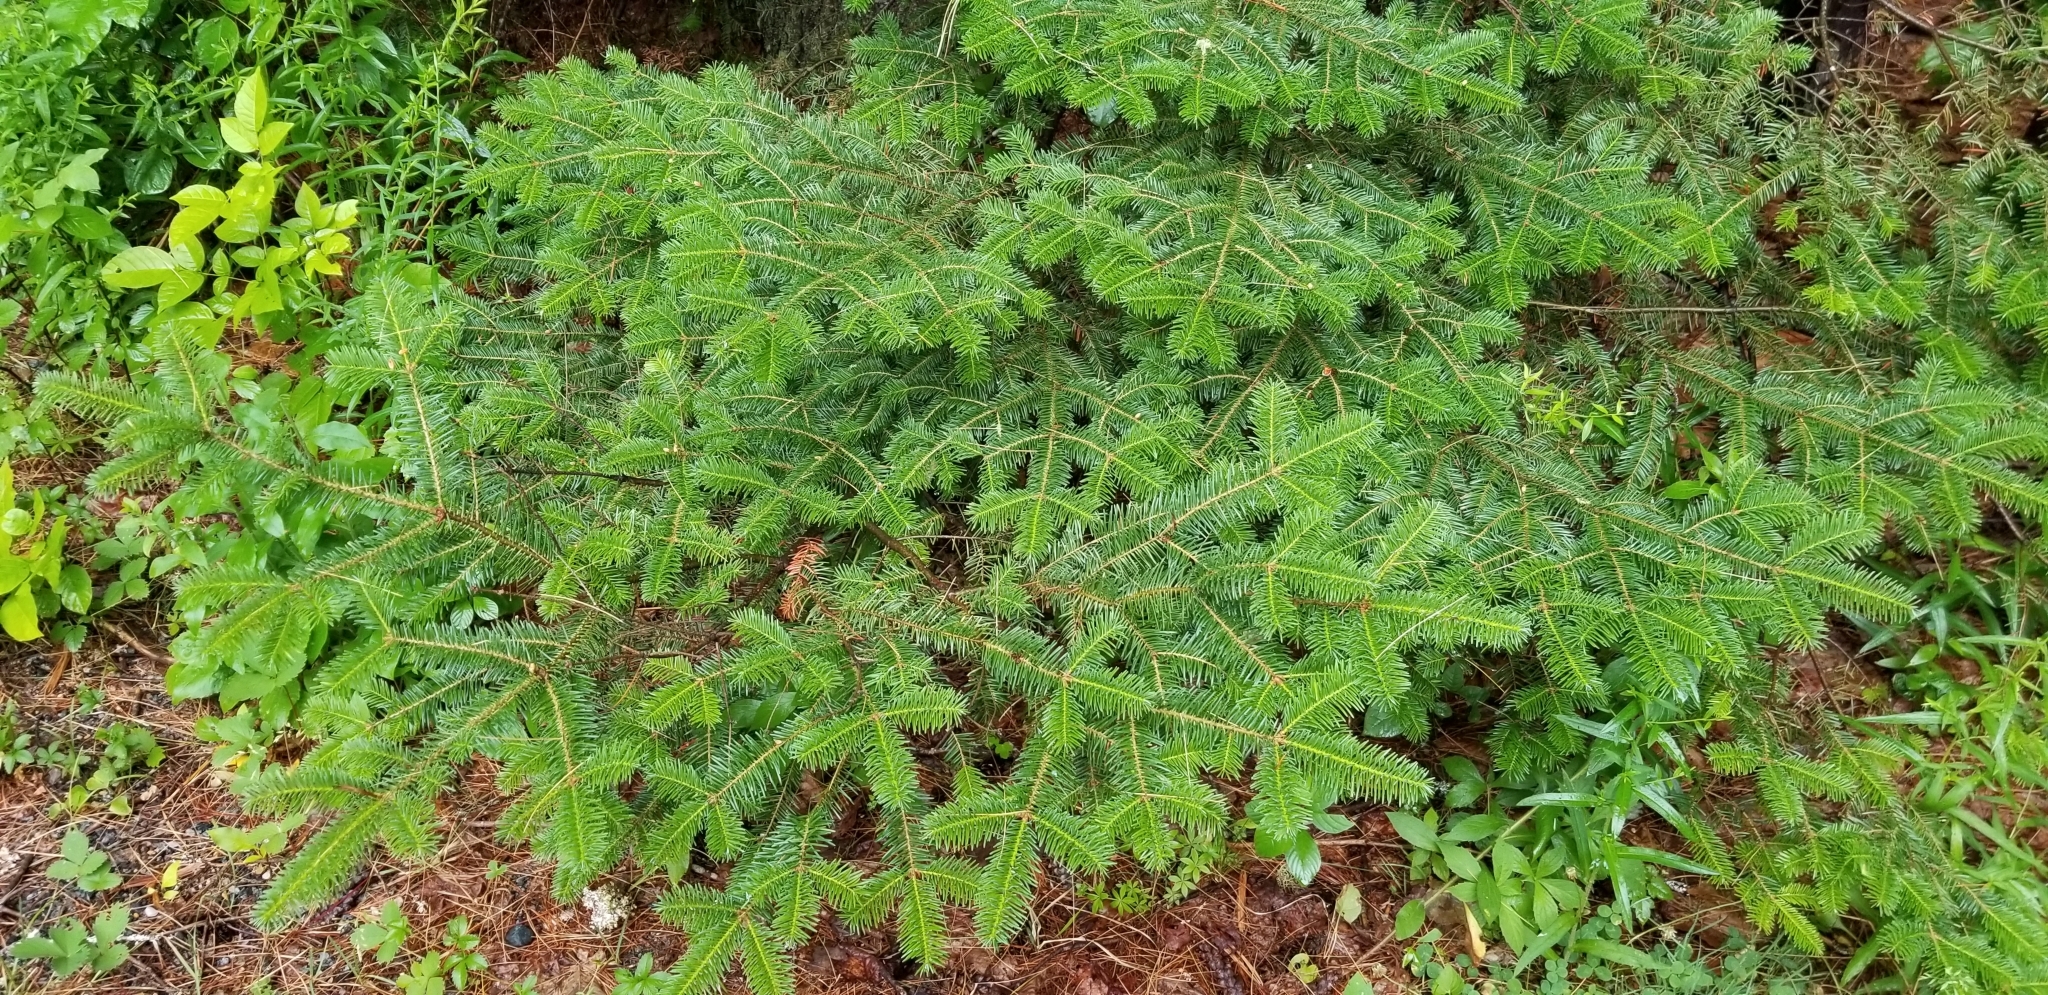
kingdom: Plantae
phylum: Tracheophyta
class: Pinopsida
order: Pinales
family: Pinaceae
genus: Abies
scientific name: Abies balsamea
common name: Balsam fir
